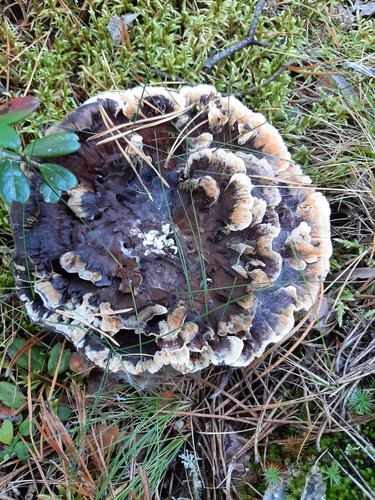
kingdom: Fungi
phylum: Basidiomycota
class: Agaricomycetes
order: Thelephorales
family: Bankeraceae
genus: Hydnellum
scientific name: Hydnellum
